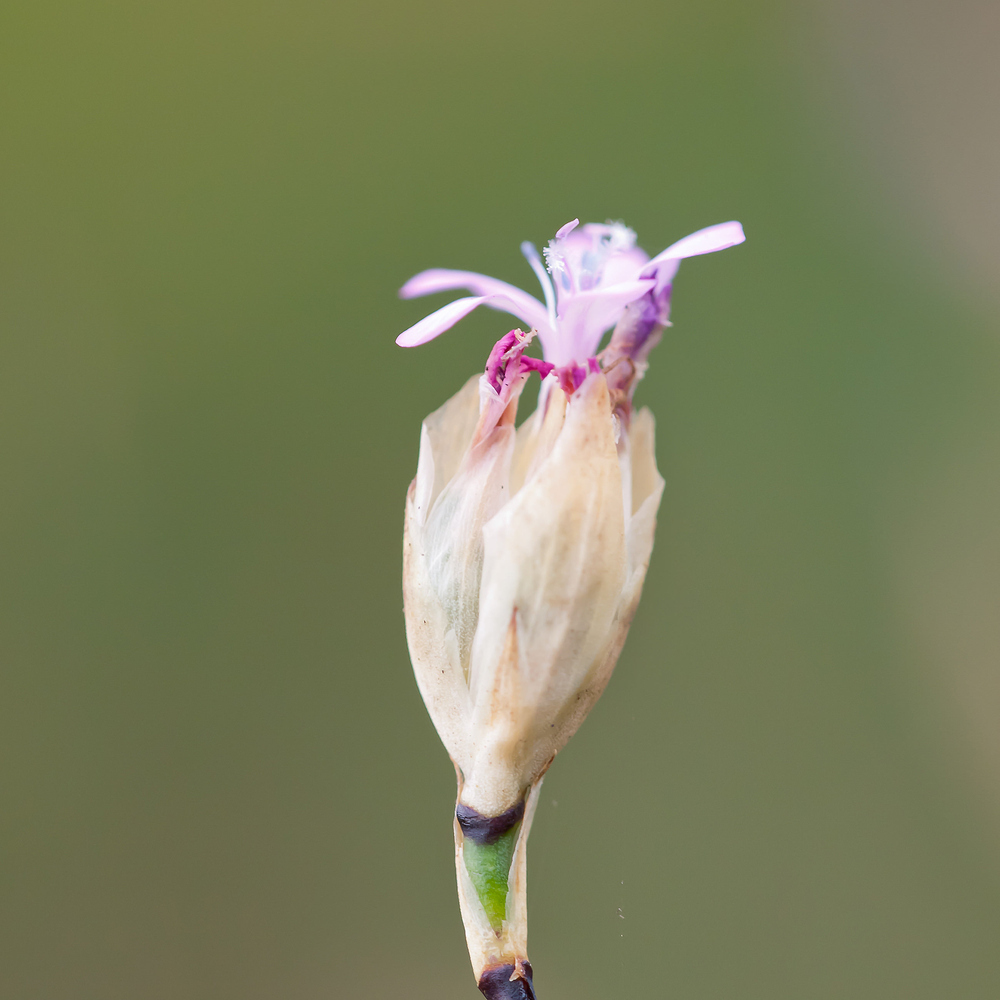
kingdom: Plantae
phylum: Tracheophyta
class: Magnoliopsida
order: Caryophyllales
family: Caryophyllaceae
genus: Petrorhagia
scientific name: Petrorhagia prolifera
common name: Proliferous pink
